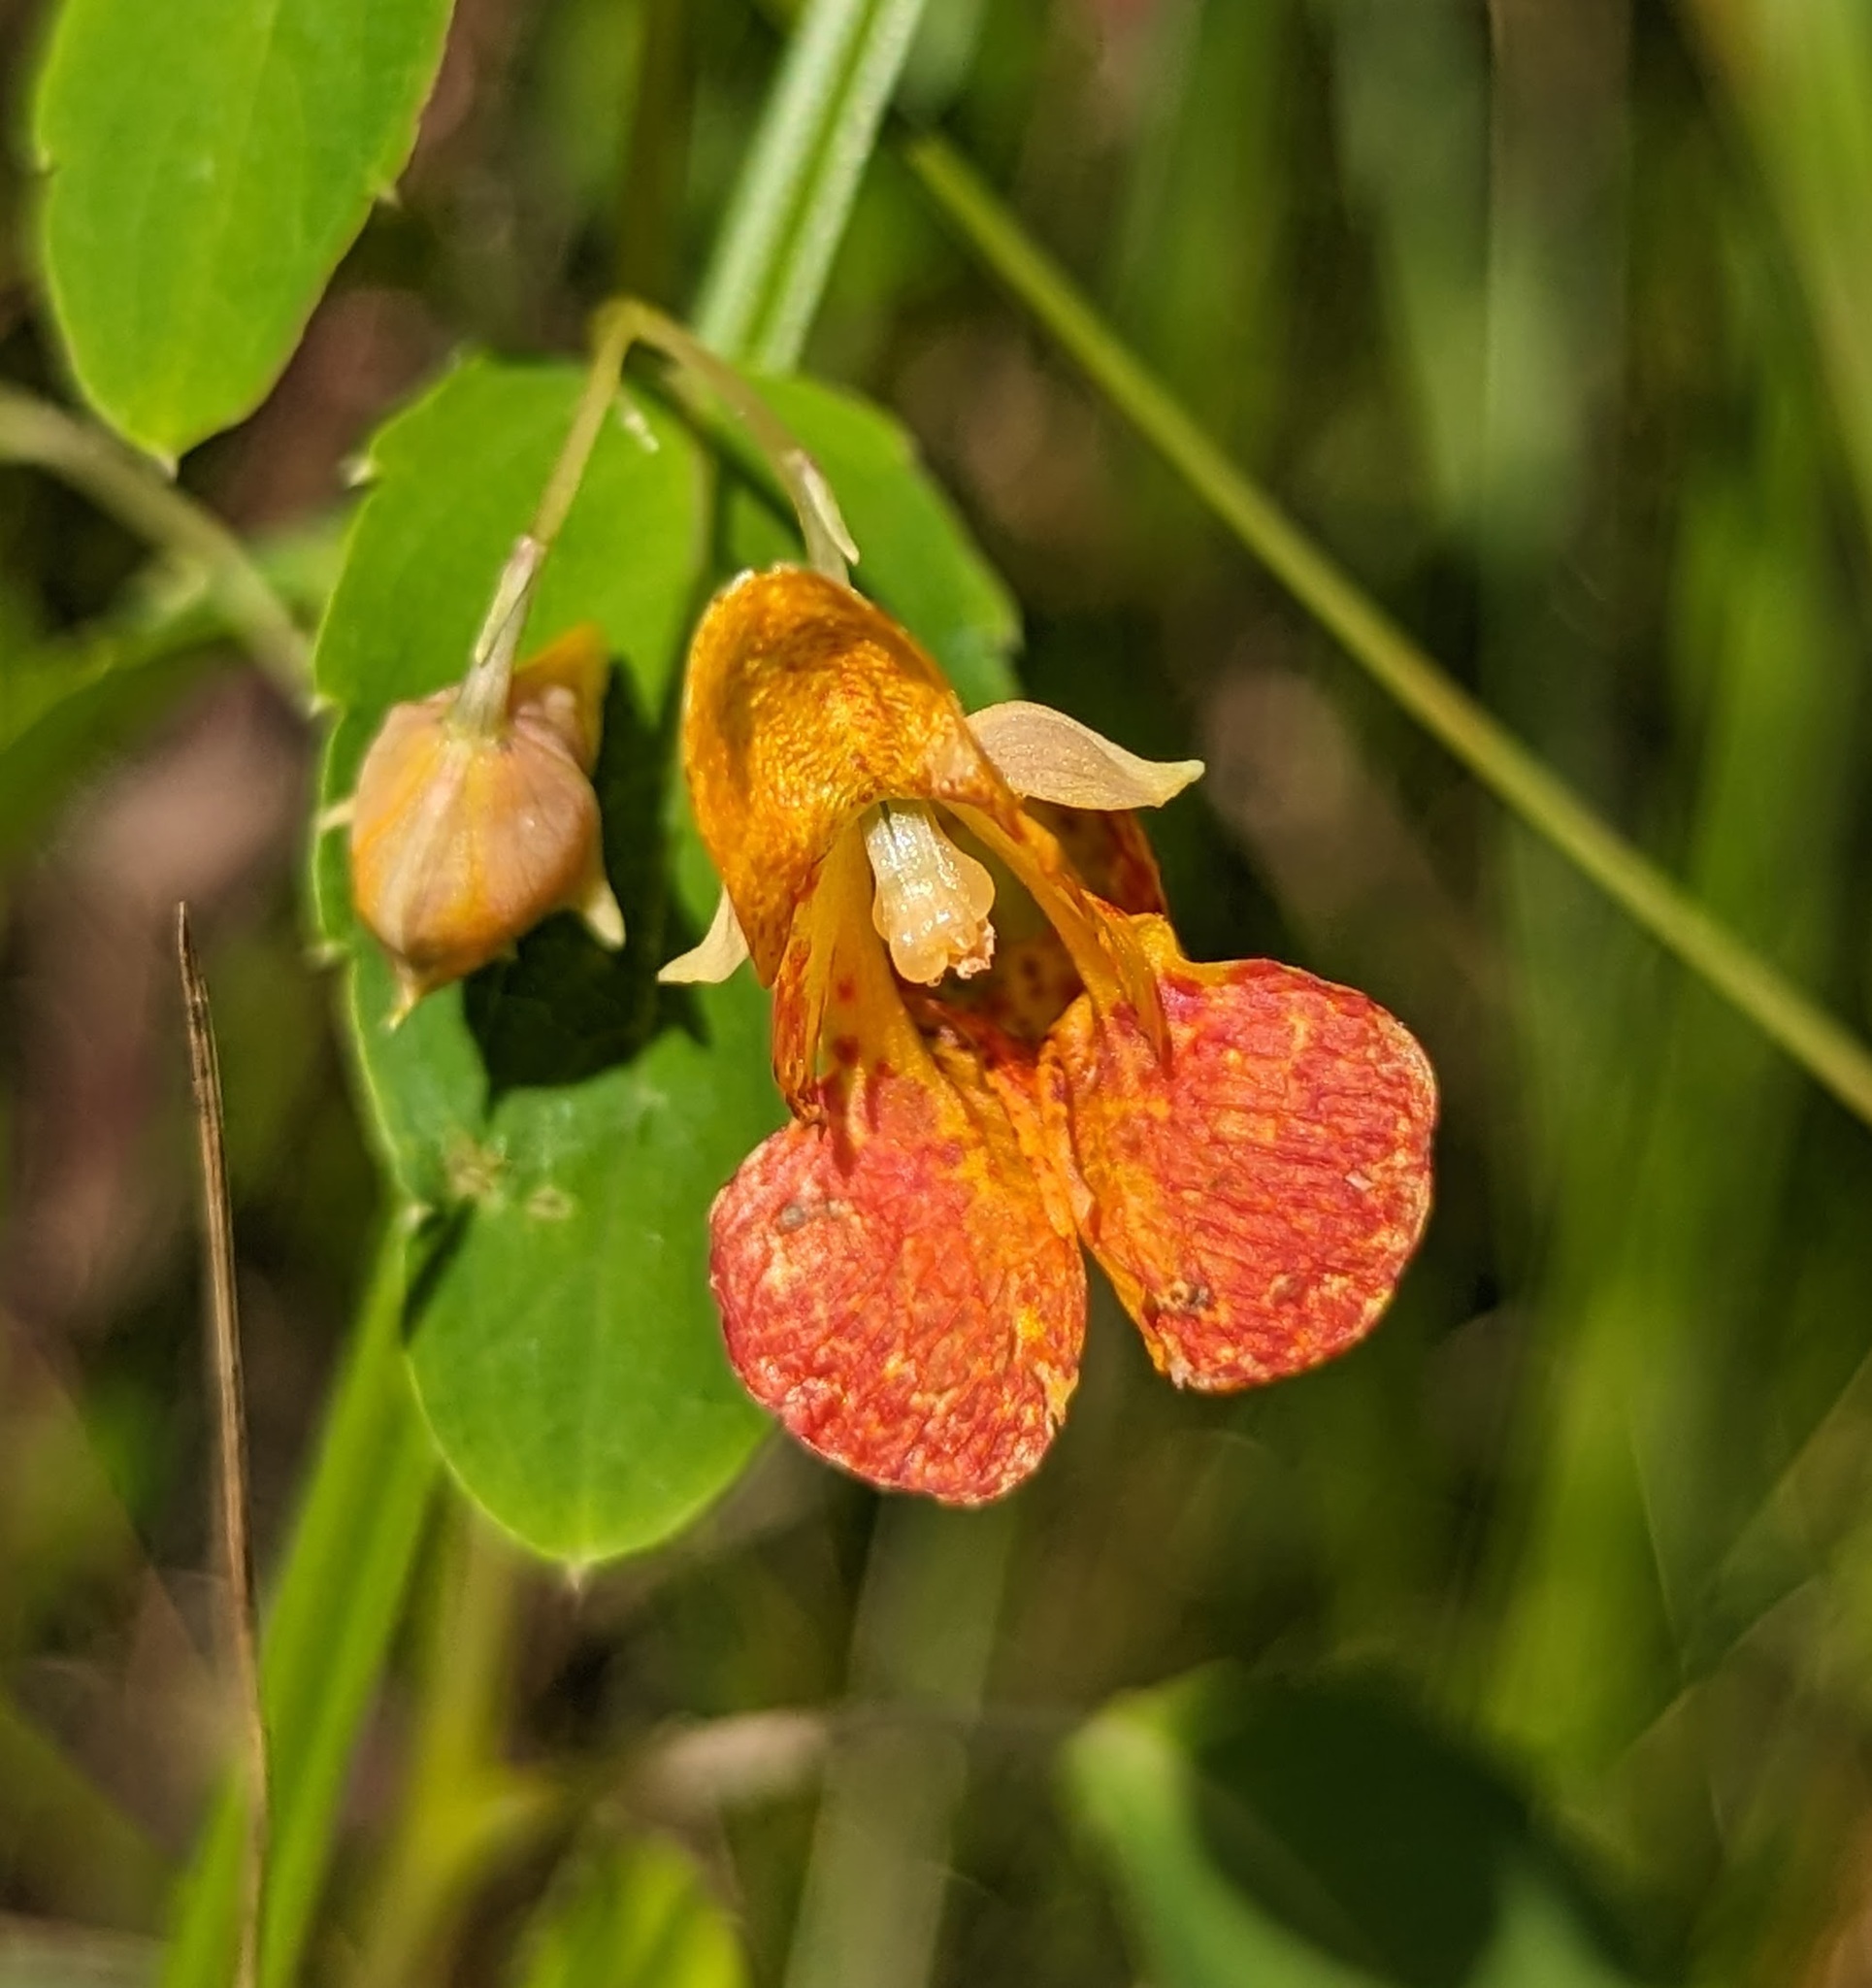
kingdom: Plantae
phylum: Tracheophyta
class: Magnoliopsida
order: Ericales
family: Balsaminaceae
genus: Impatiens
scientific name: Impatiens capensis
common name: Orange balsam
